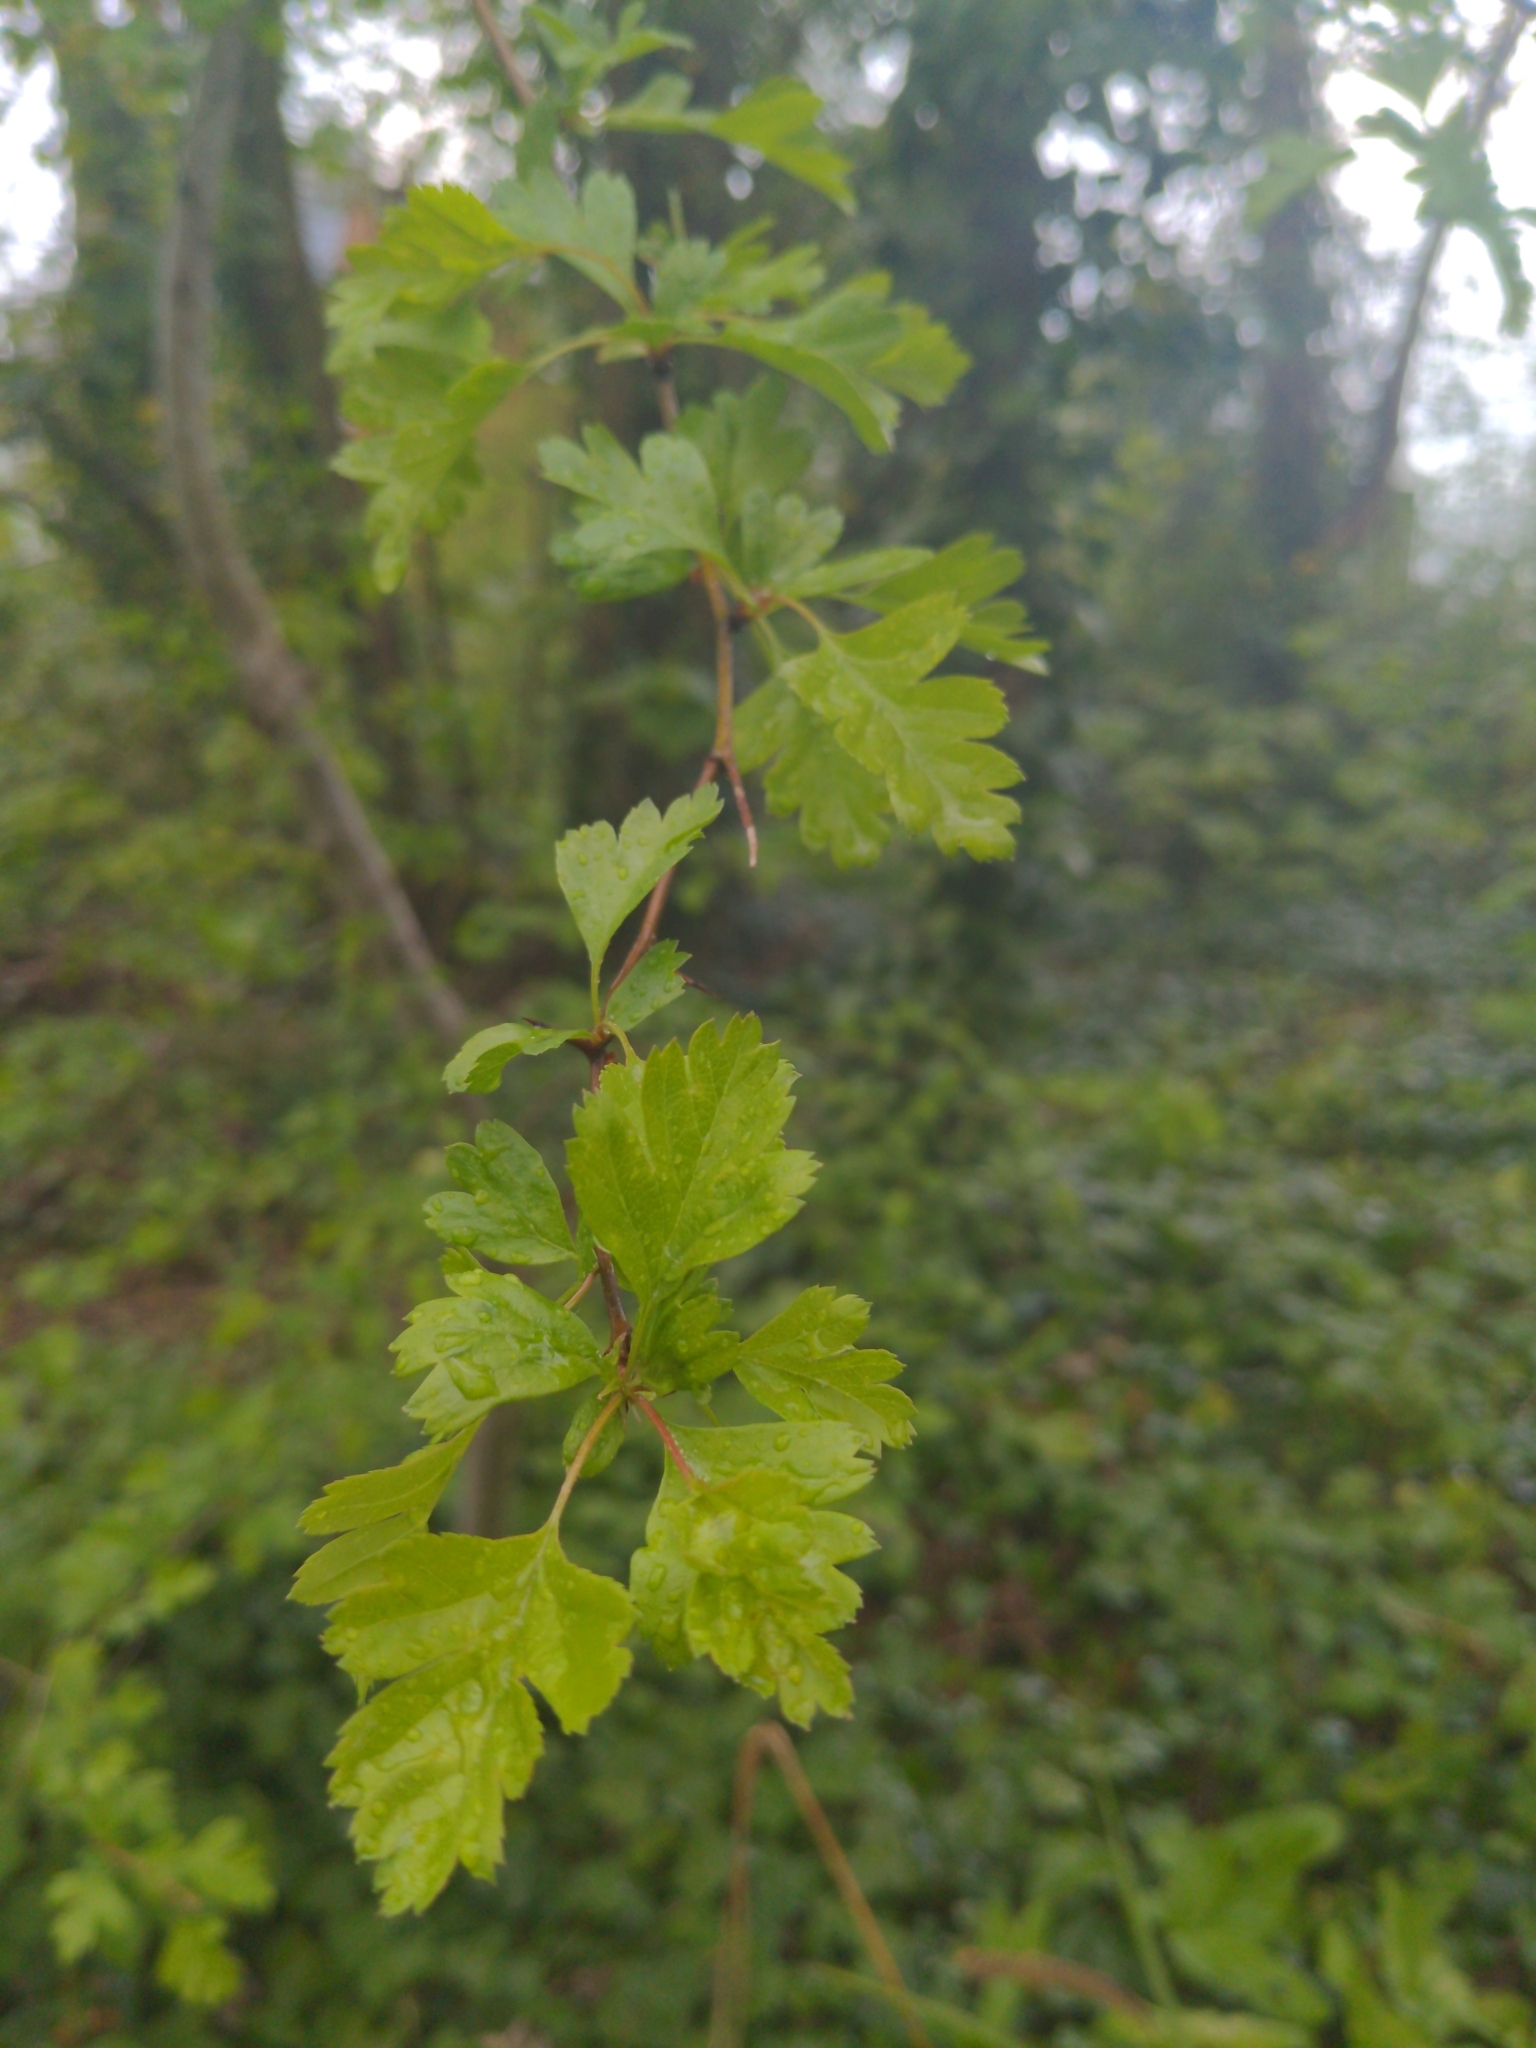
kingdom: Plantae
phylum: Tracheophyta
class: Magnoliopsida
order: Rosales
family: Rosaceae
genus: Crataegus
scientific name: Crataegus monogyna
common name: Hawthorn
